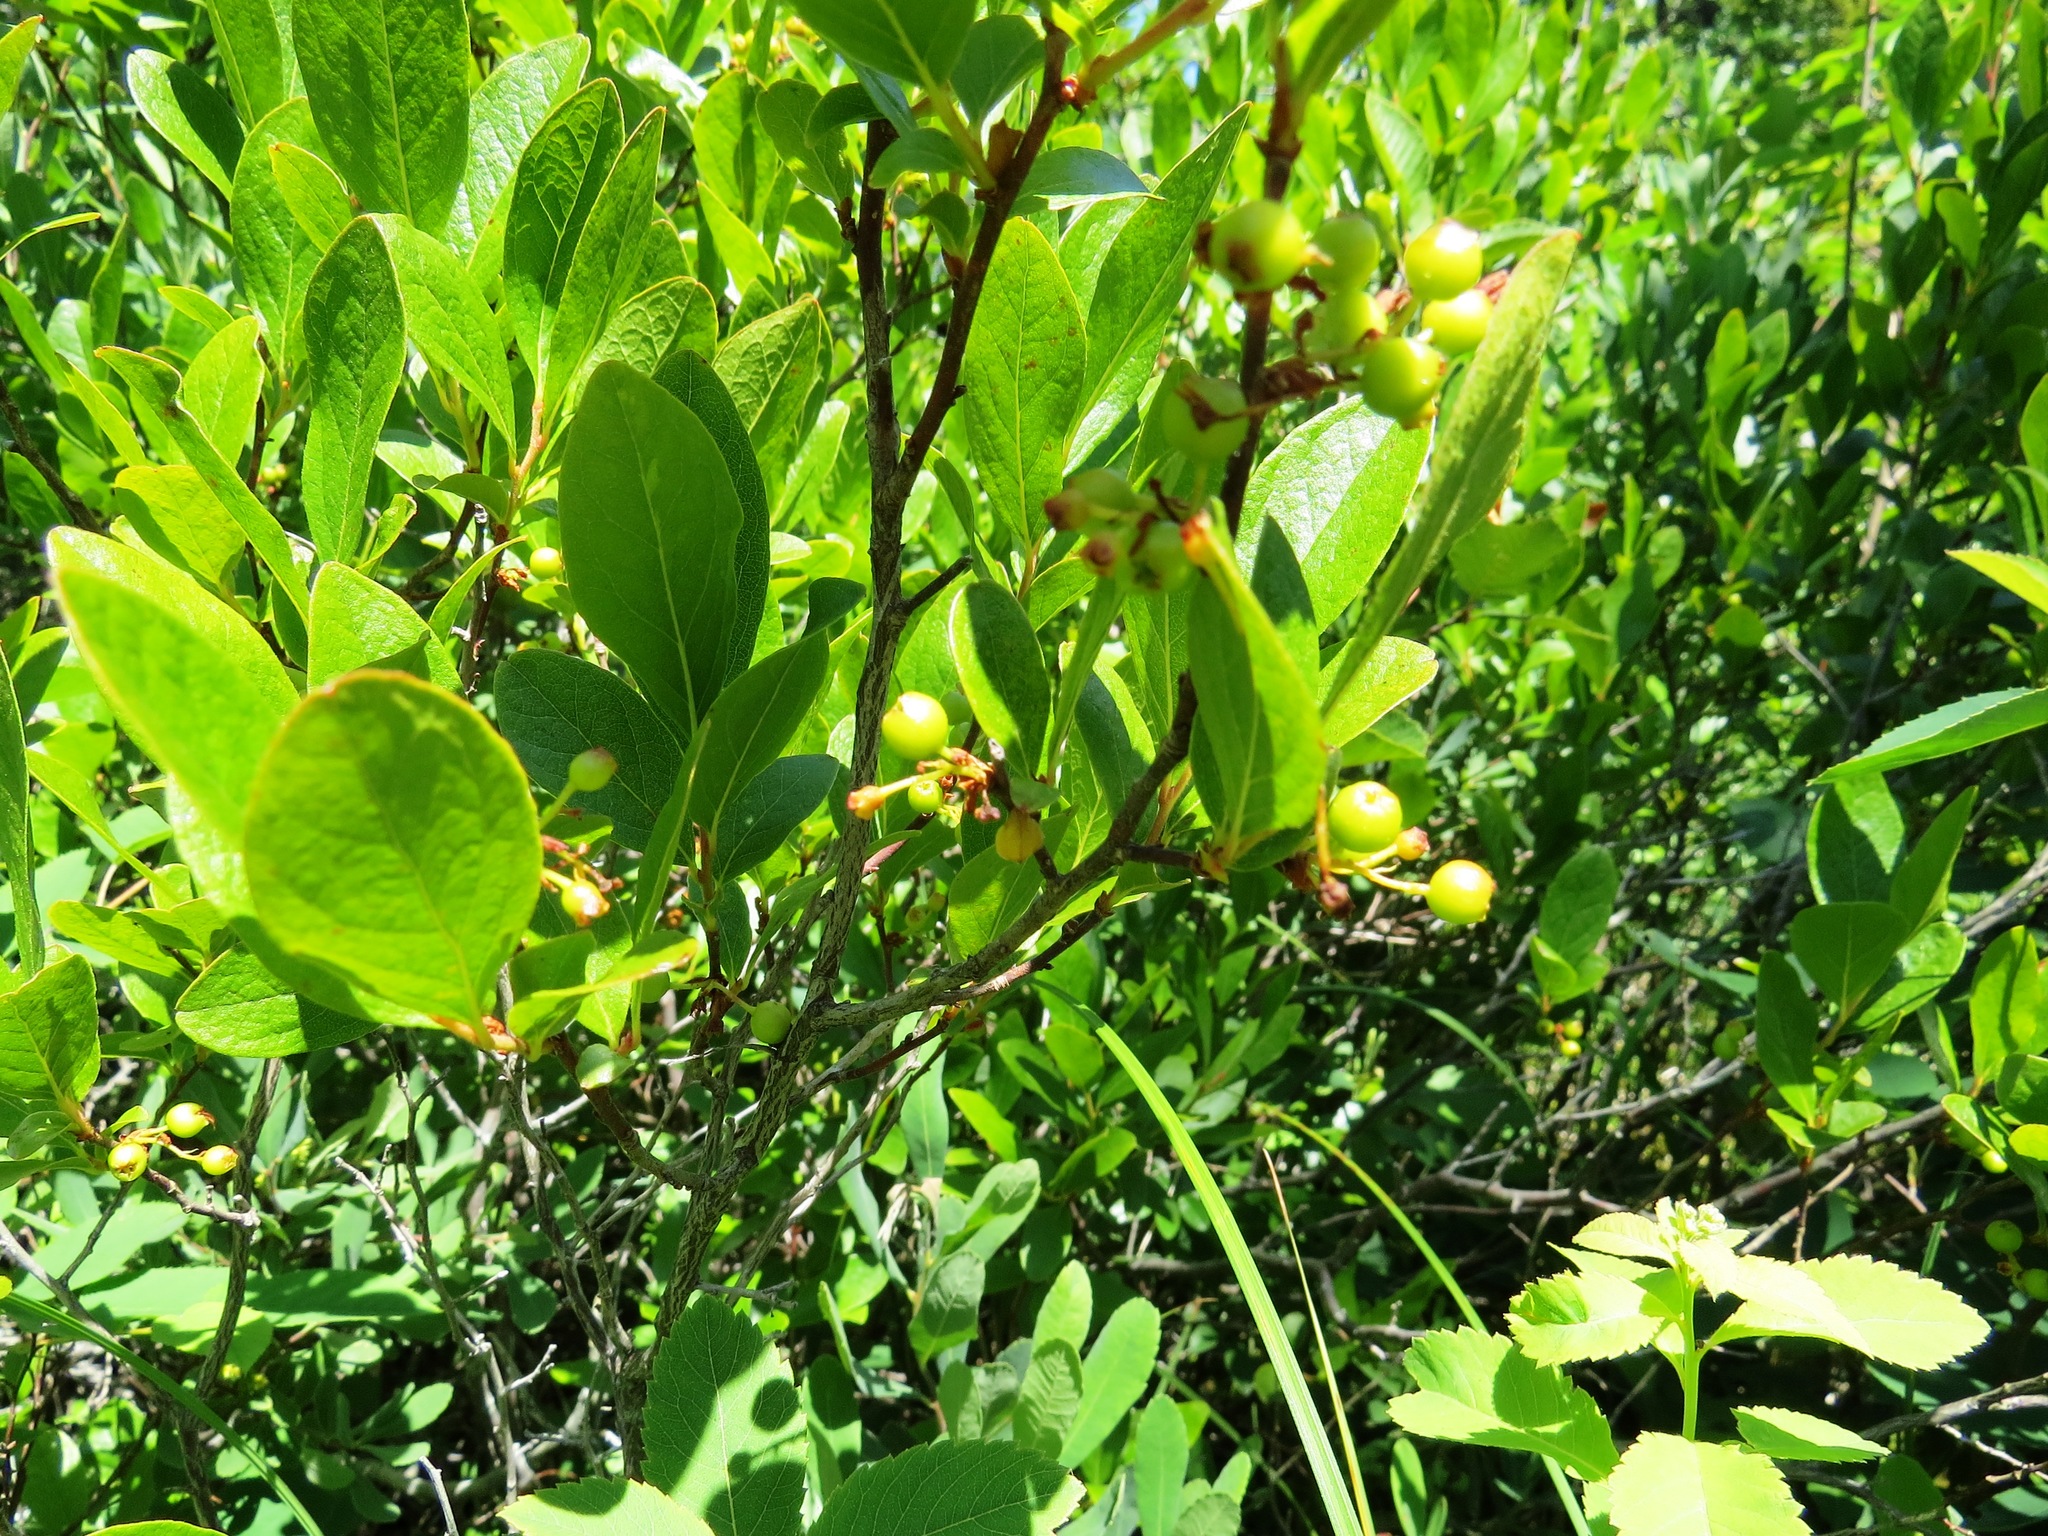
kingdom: Plantae
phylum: Tracheophyta
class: Magnoliopsida
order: Ericales
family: Ericaceae
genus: Gaylussacia
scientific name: Gaylussacia baccata
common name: Black huckleberry
